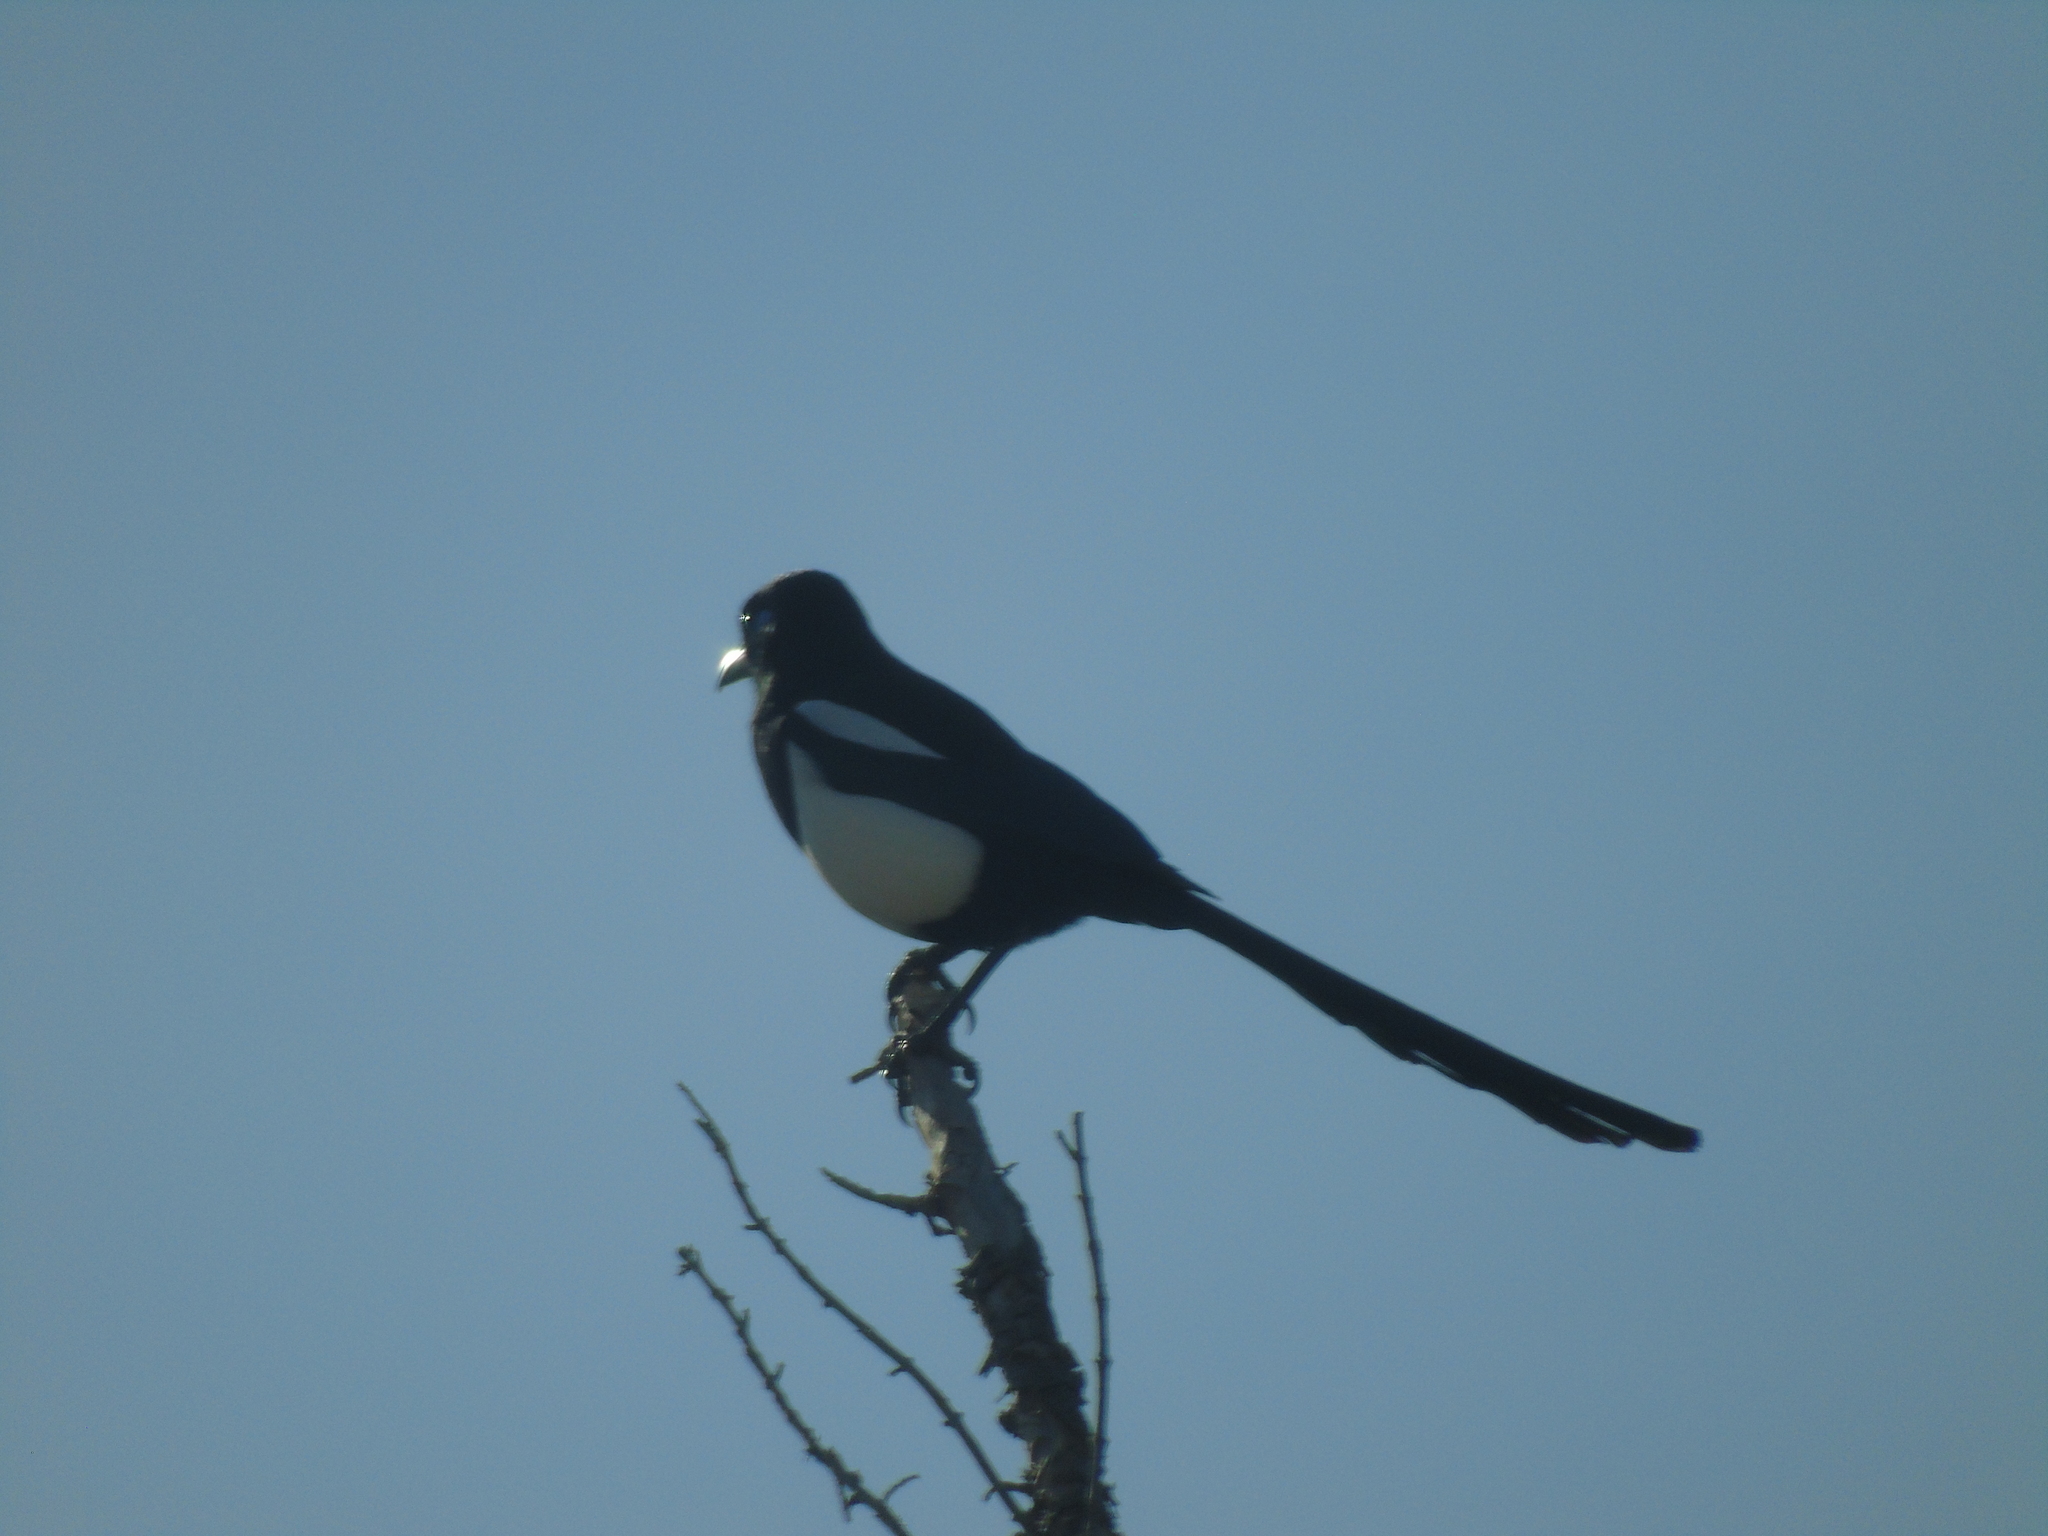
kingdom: Animalia
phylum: Chordata
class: Aves
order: Passeriformes
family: Corvidae
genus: Pica
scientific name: Pica mauritanica
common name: Maghreb magpie
